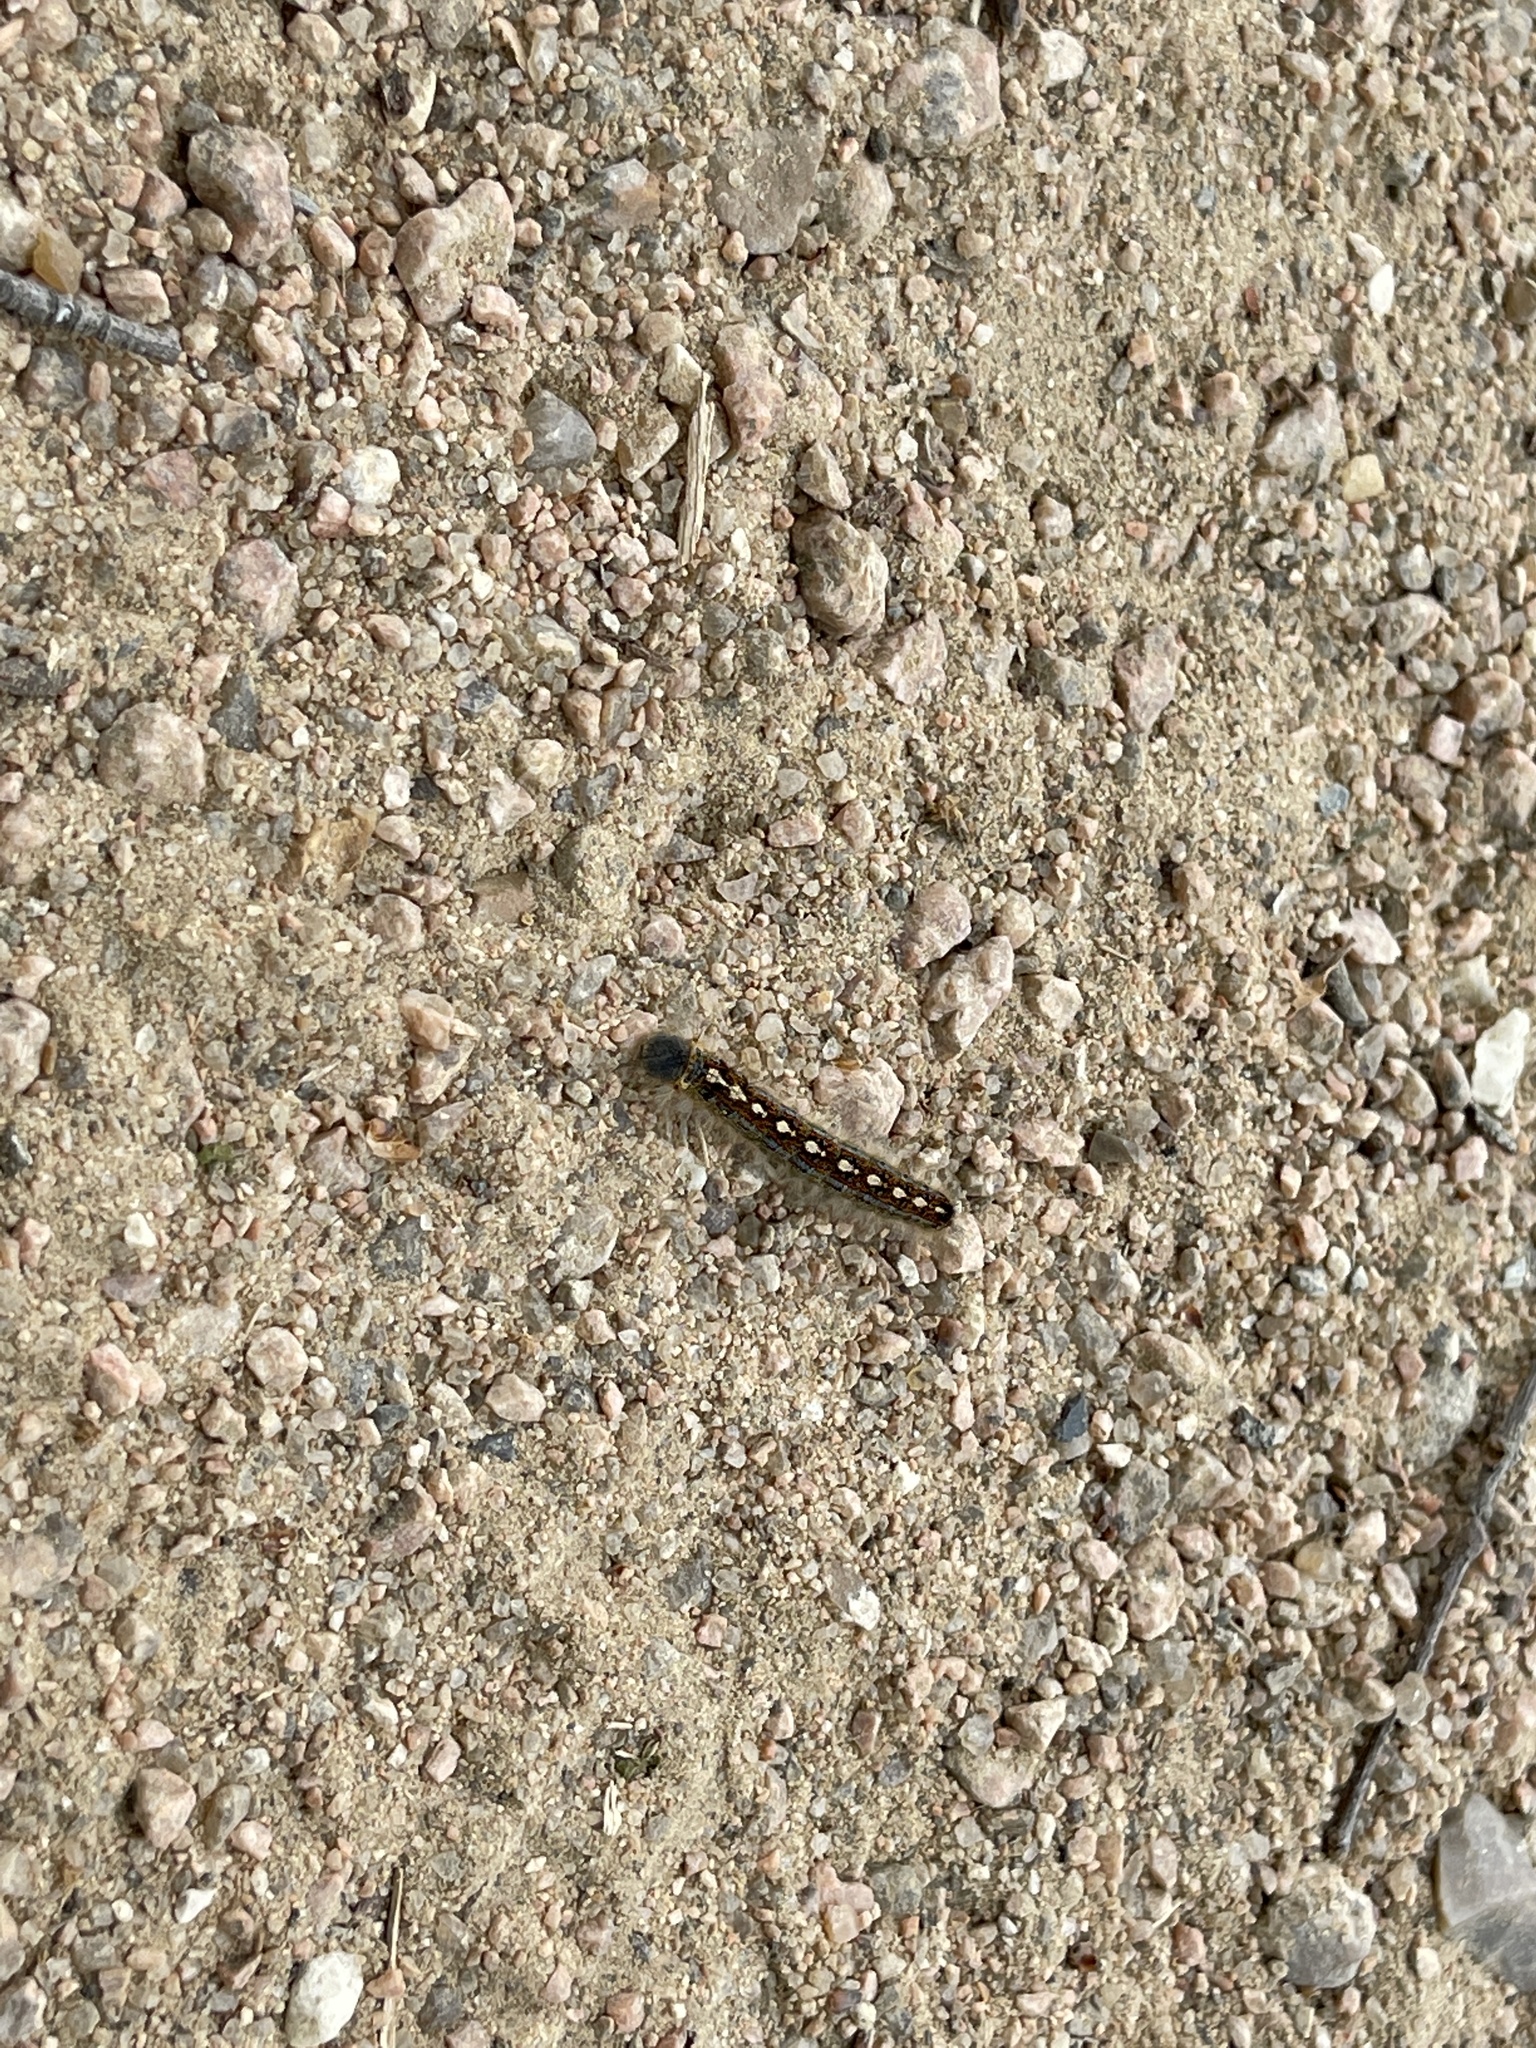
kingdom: Animalia
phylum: Arthropoda
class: Insecta
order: Lepidoptera
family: Lasiocampidae
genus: Malacosoma
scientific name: Malacosoma disstria
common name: Forest tent caterpillar
